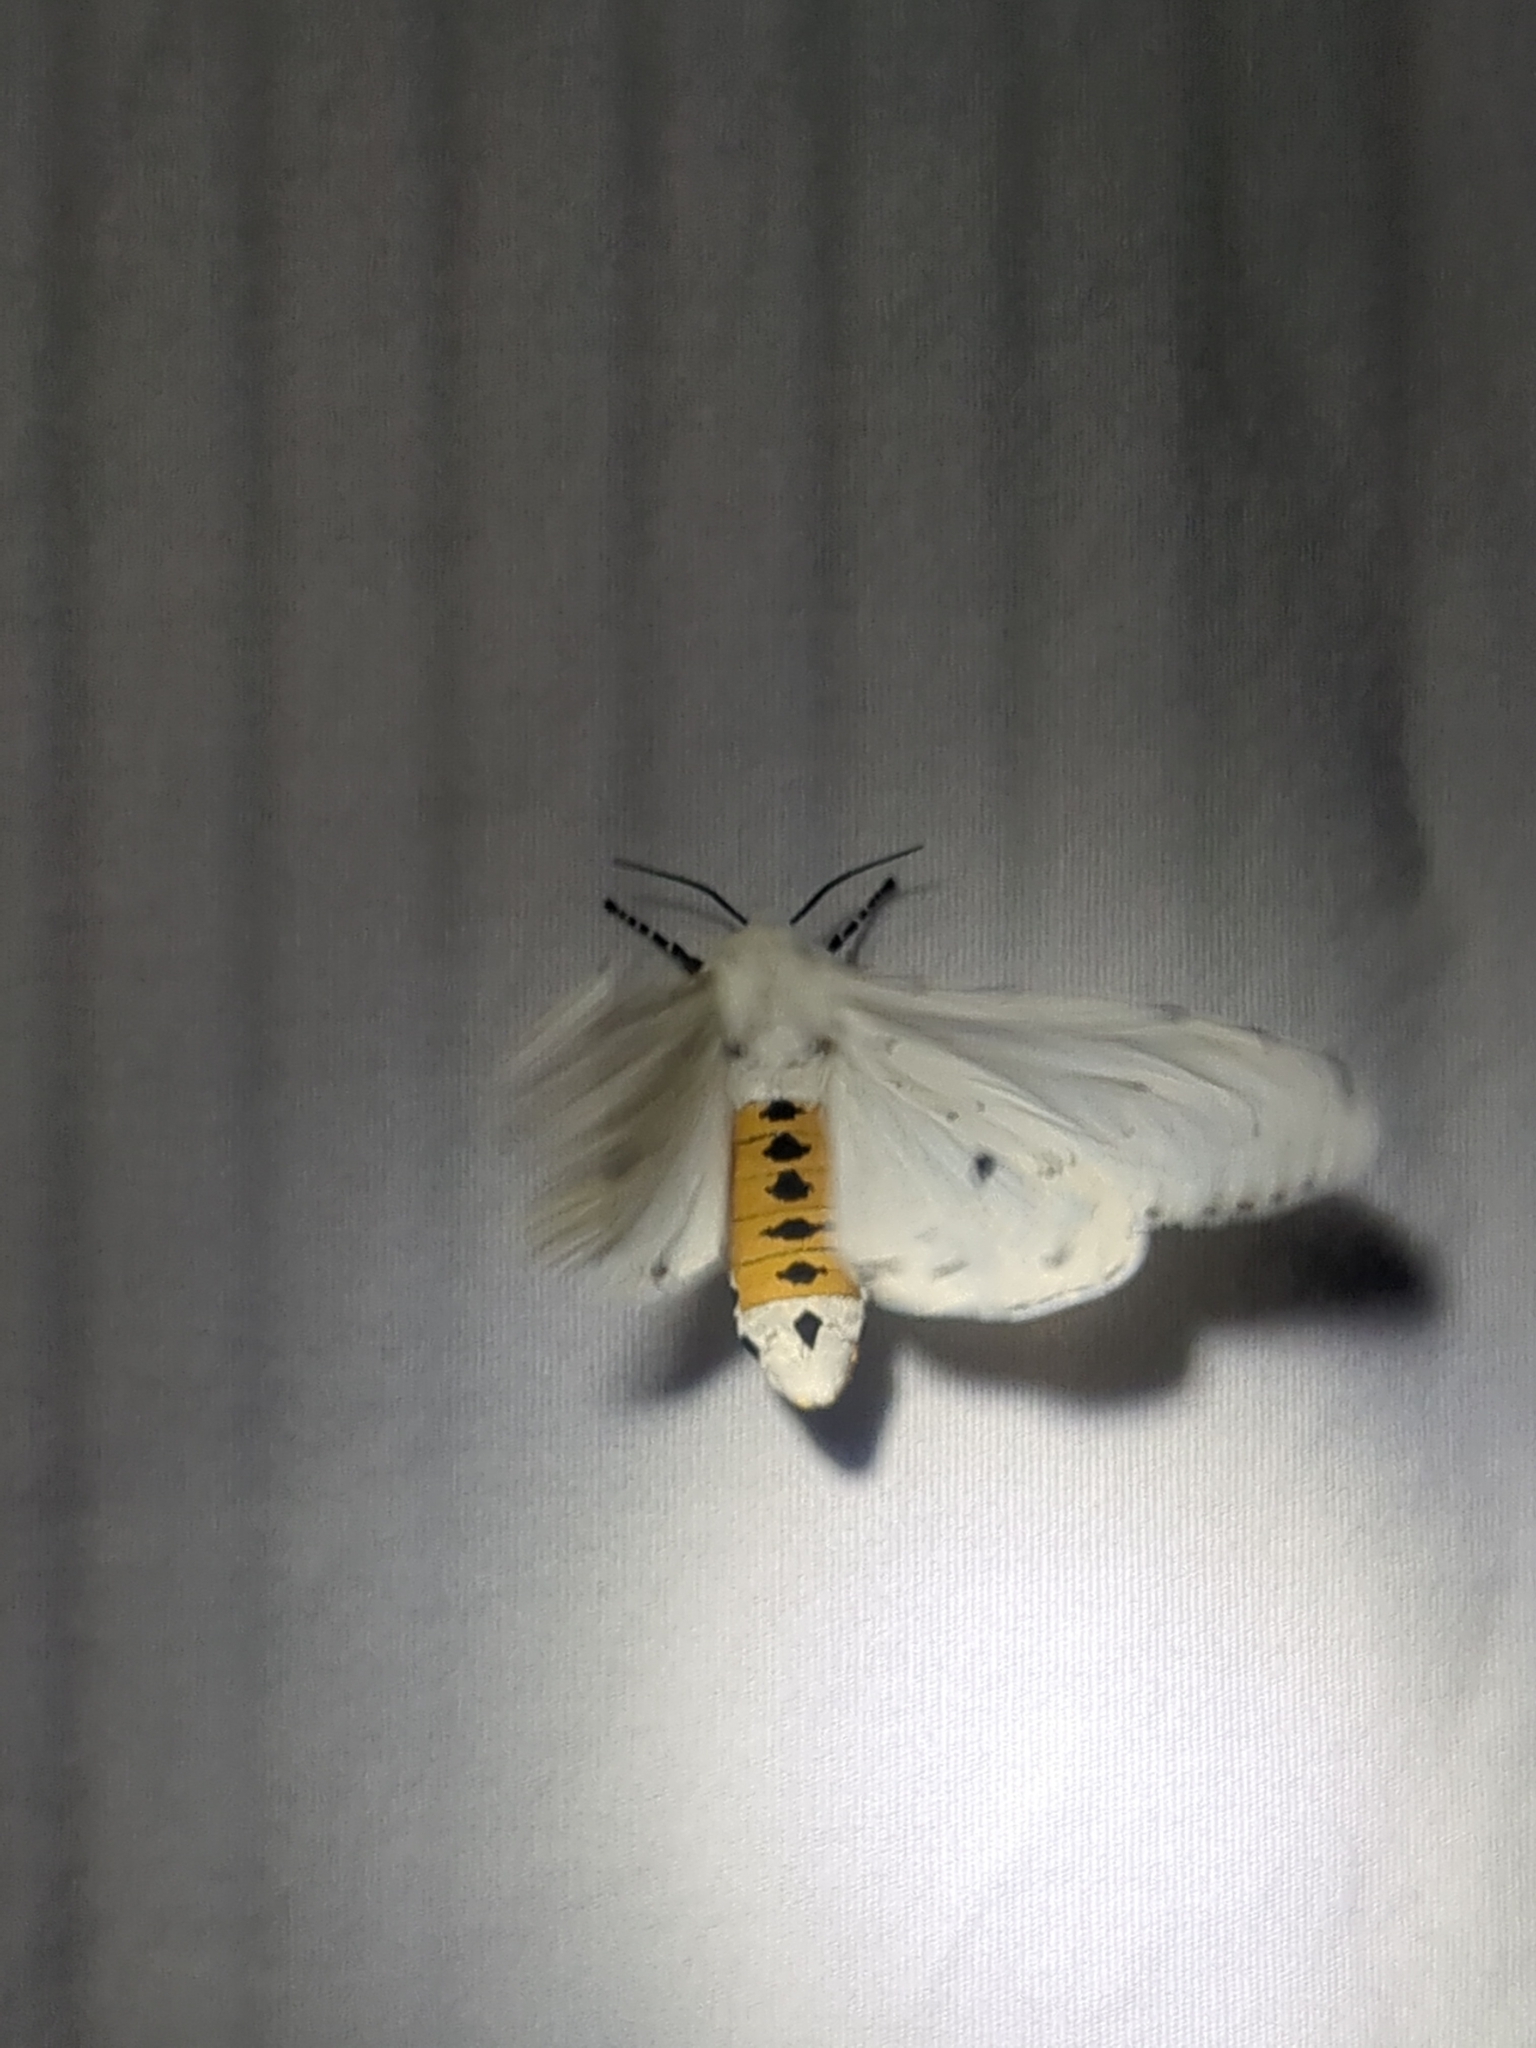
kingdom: Animalia
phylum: Arthropoda
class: Insecta
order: Lepidoptera
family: Erebidae
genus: Estigmene
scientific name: Estigmene acrea
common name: Salt marsh moth
